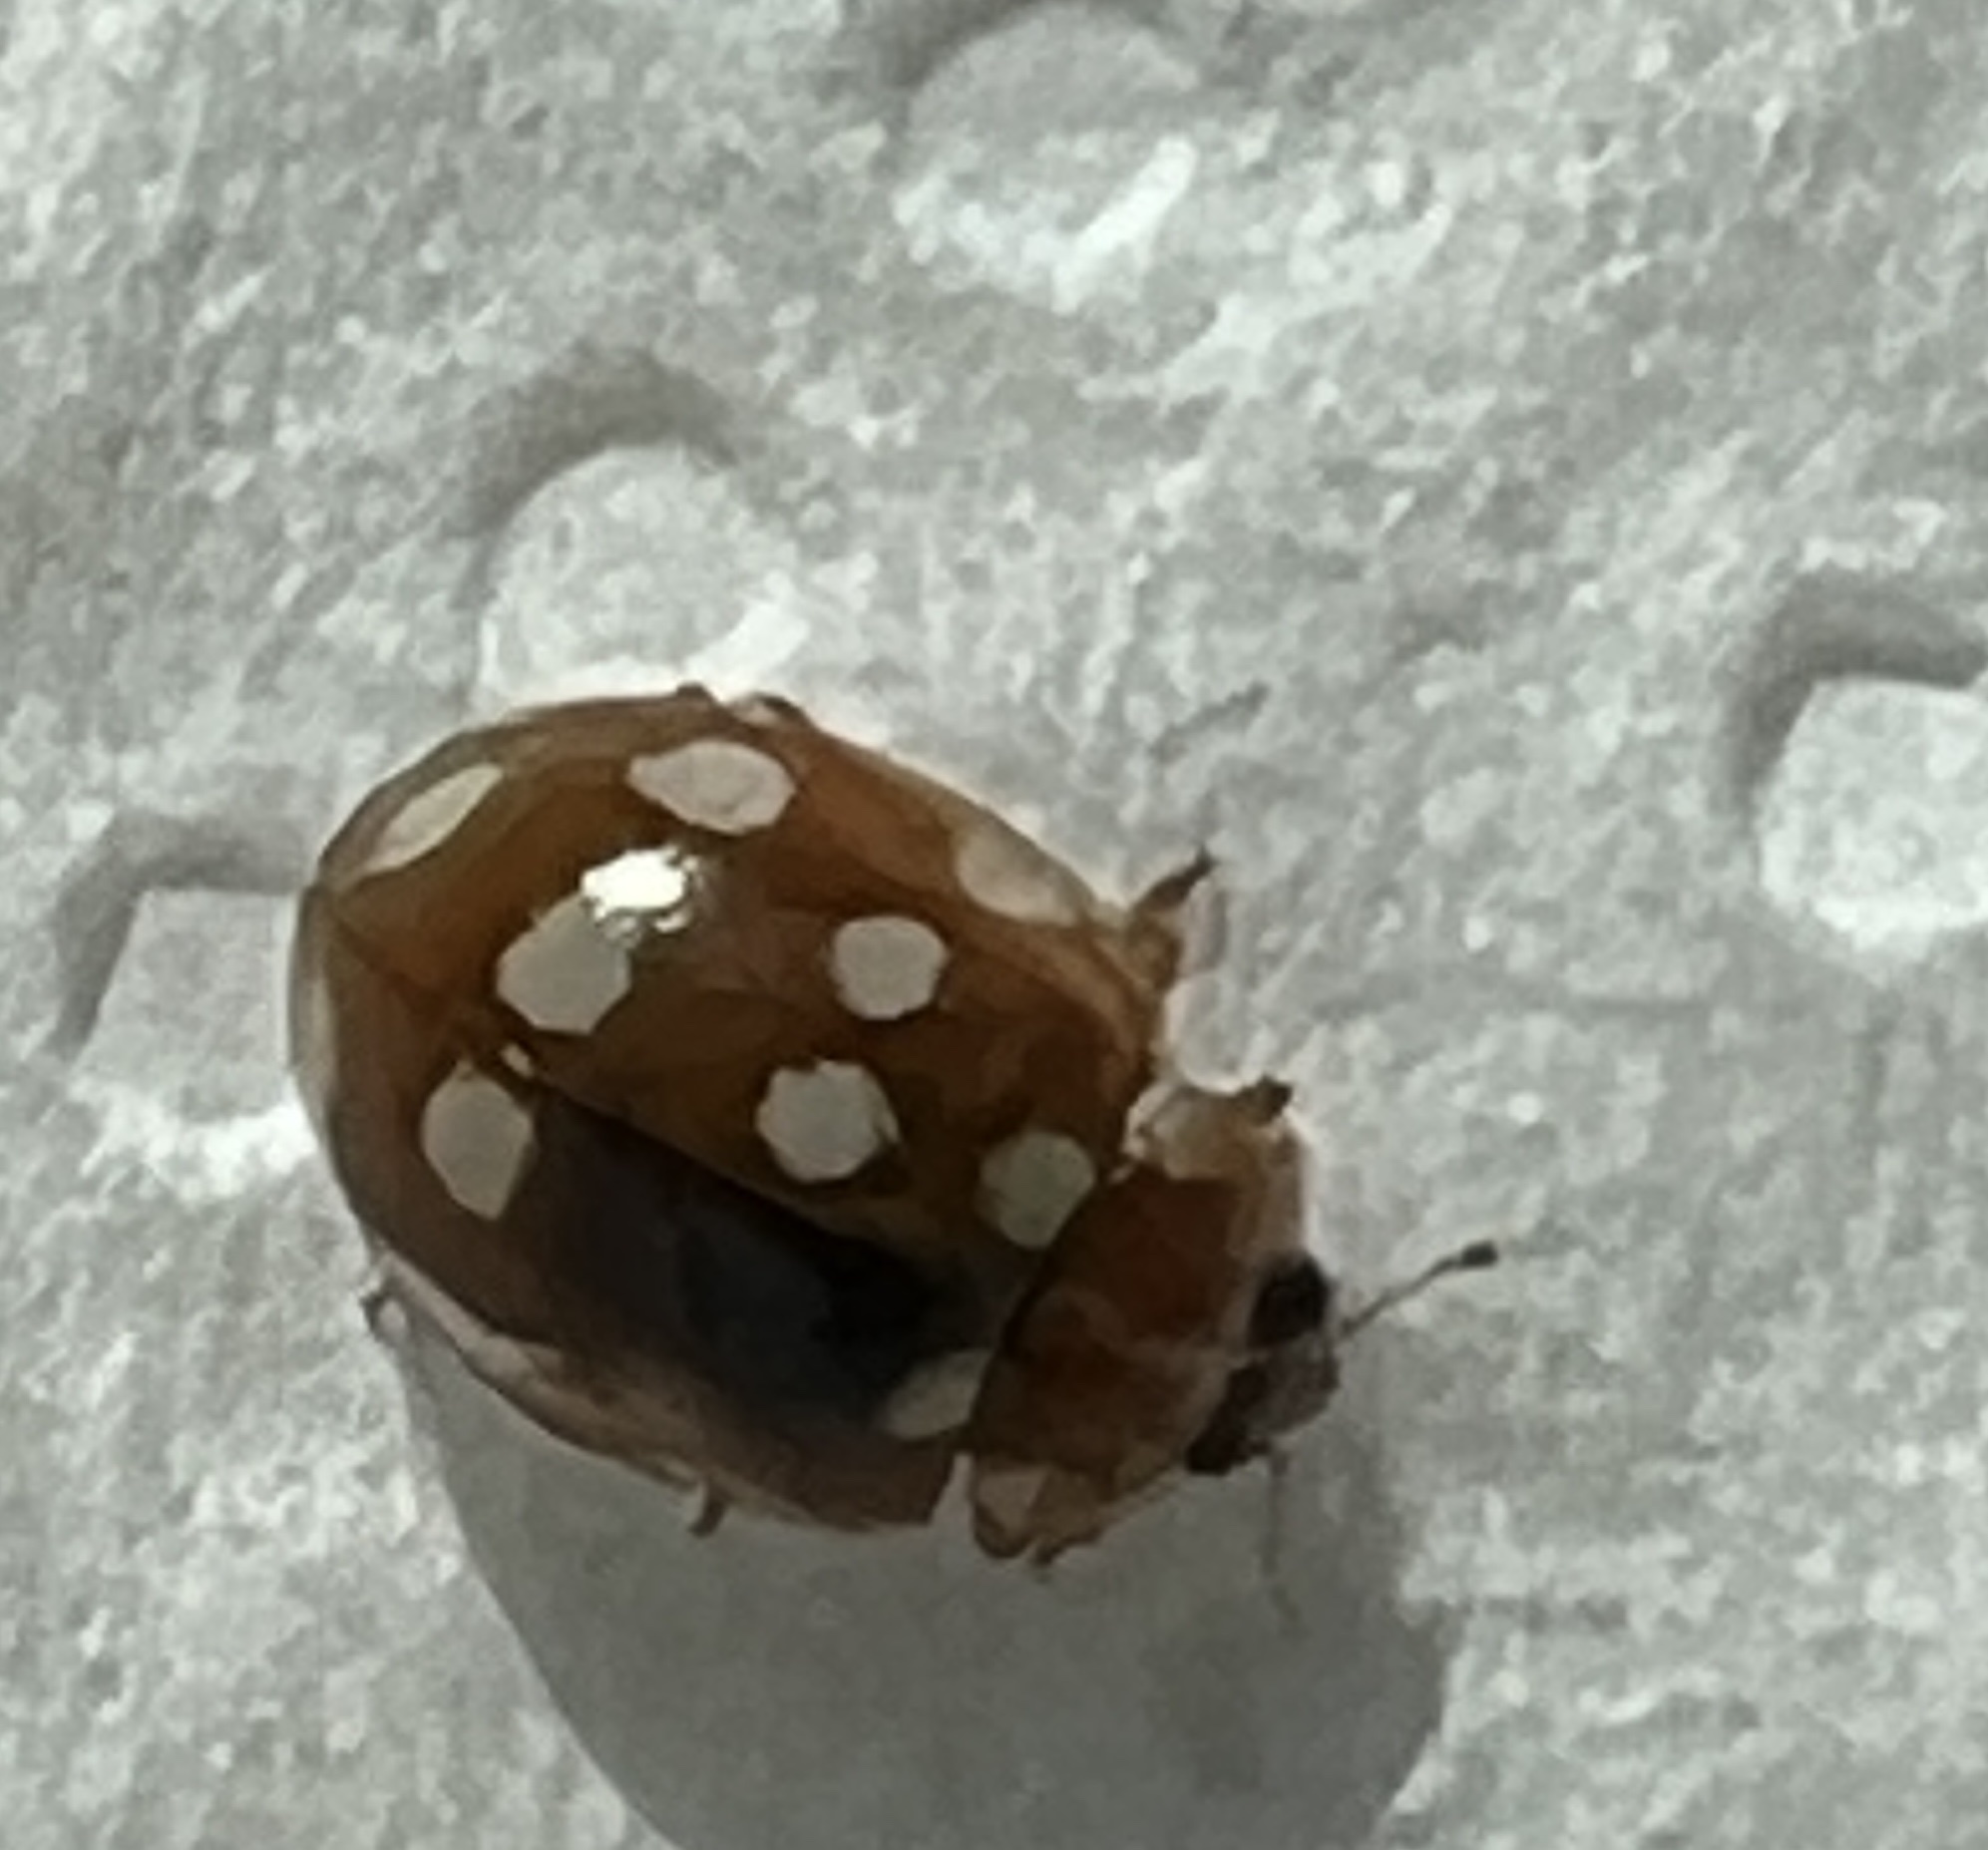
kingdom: Animalia
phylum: Arthropoda
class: Insecta
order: Coleoptera
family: Coccinellidae
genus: Calvia
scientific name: Calvia quatuordecimguttata
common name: Cream-spot ladybird
